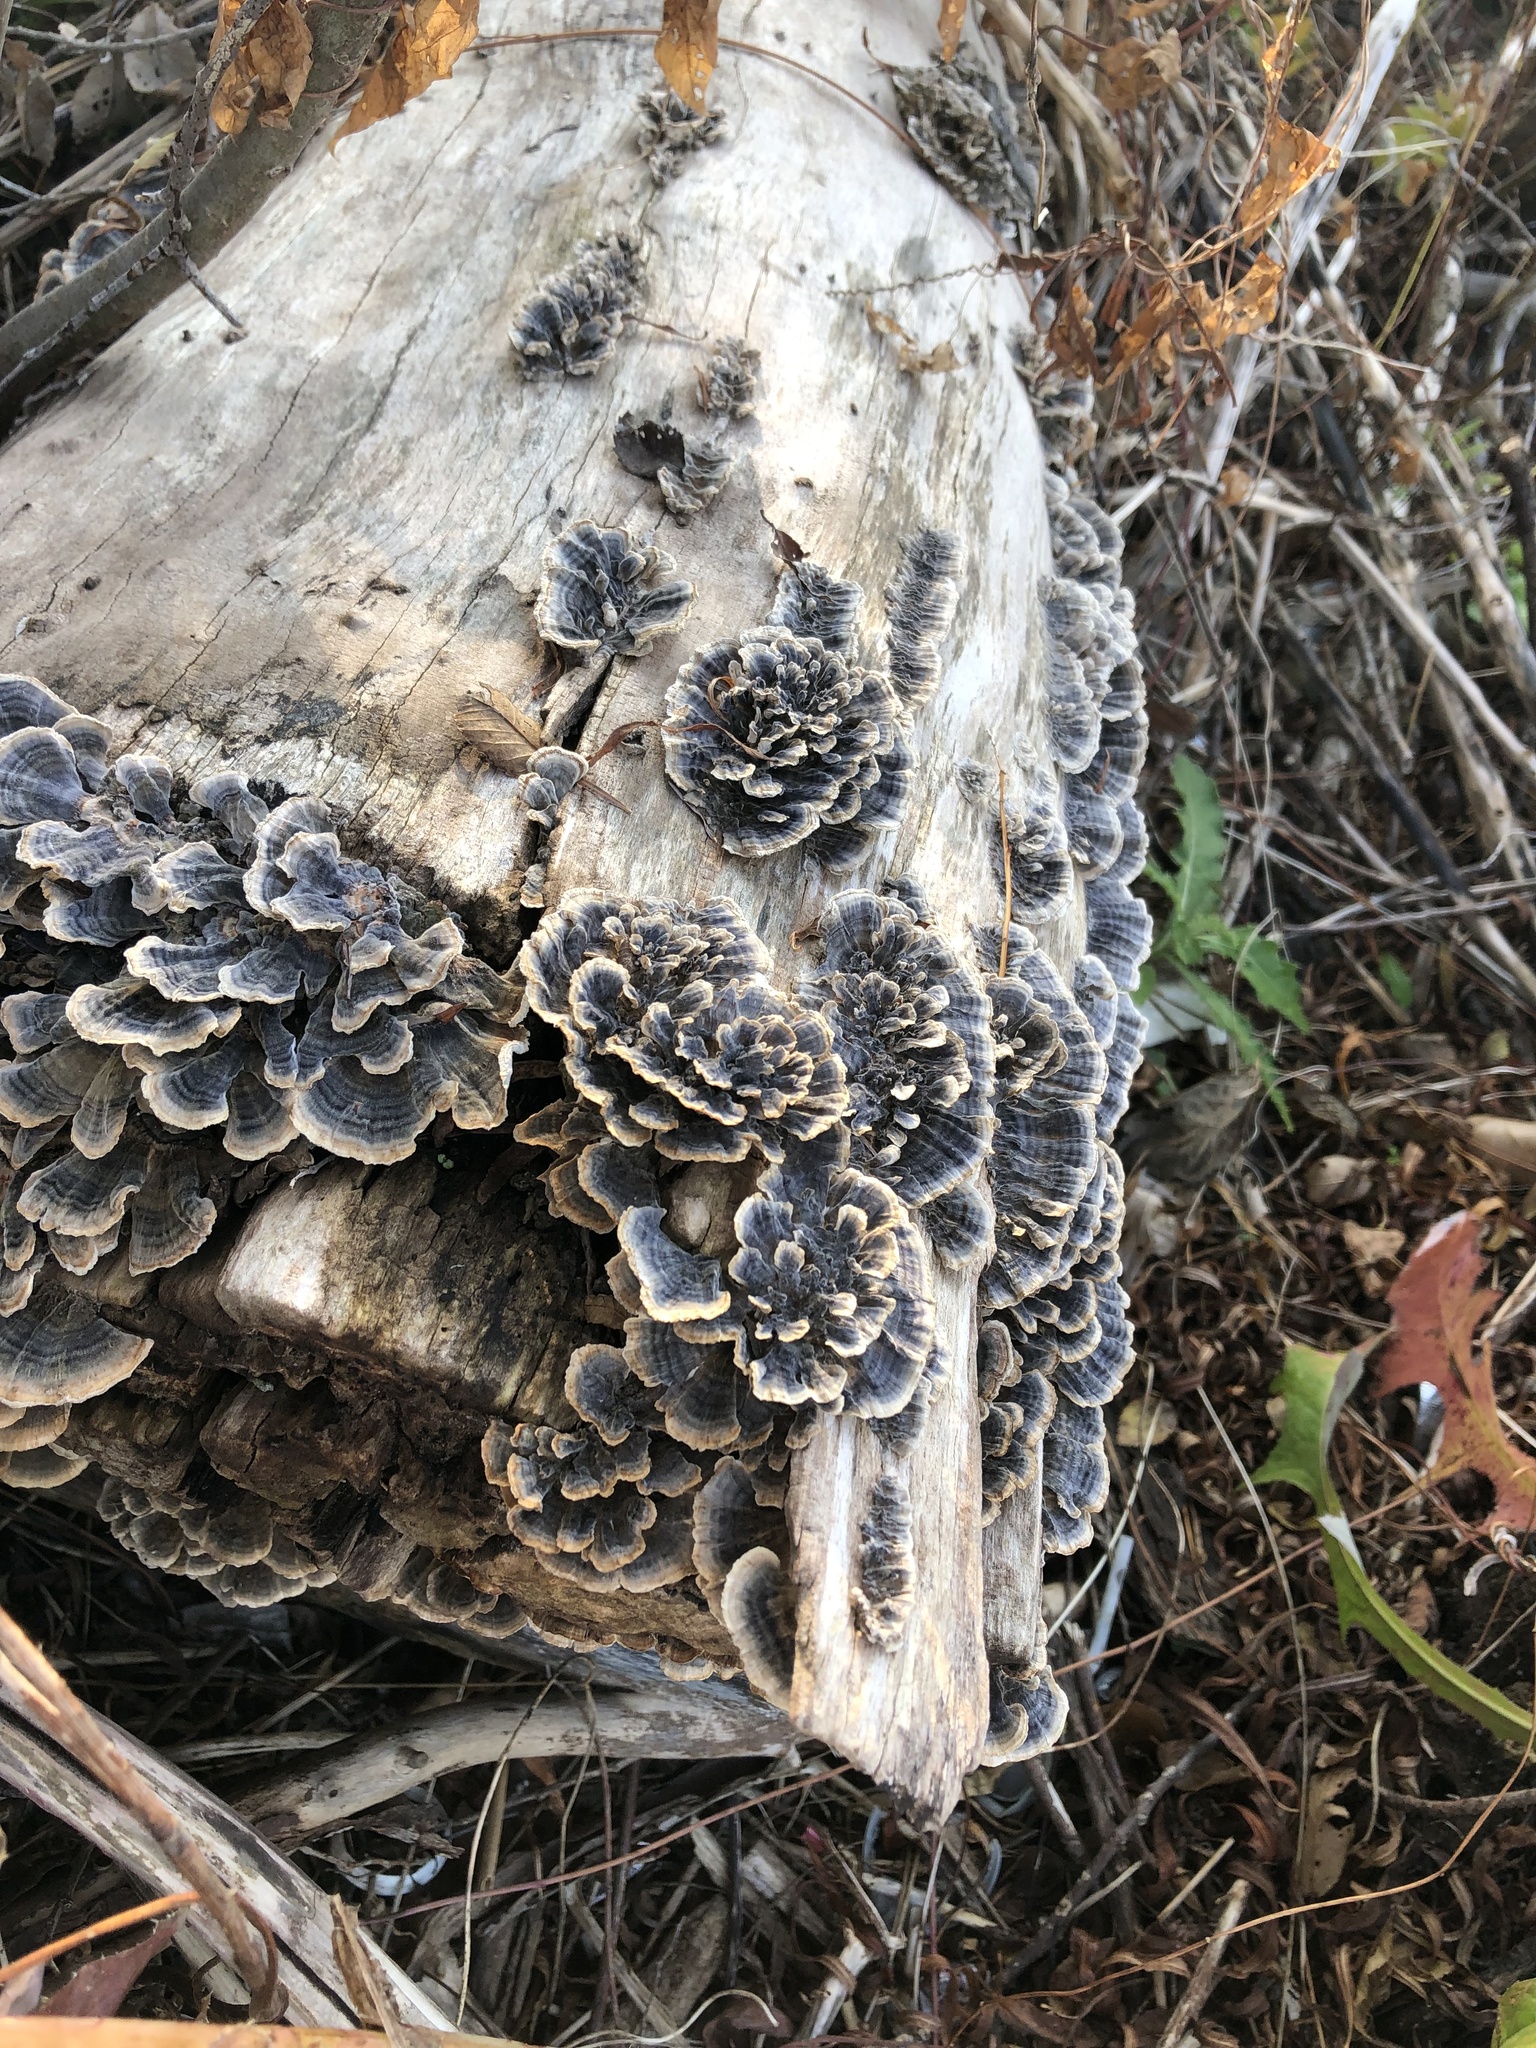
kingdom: Fungi
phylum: Basidiomycota
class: Agaricomycetes
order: Polyporales
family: Polyporaceae
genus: Trametes
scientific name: Trametes versicolor
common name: Turkeytail
